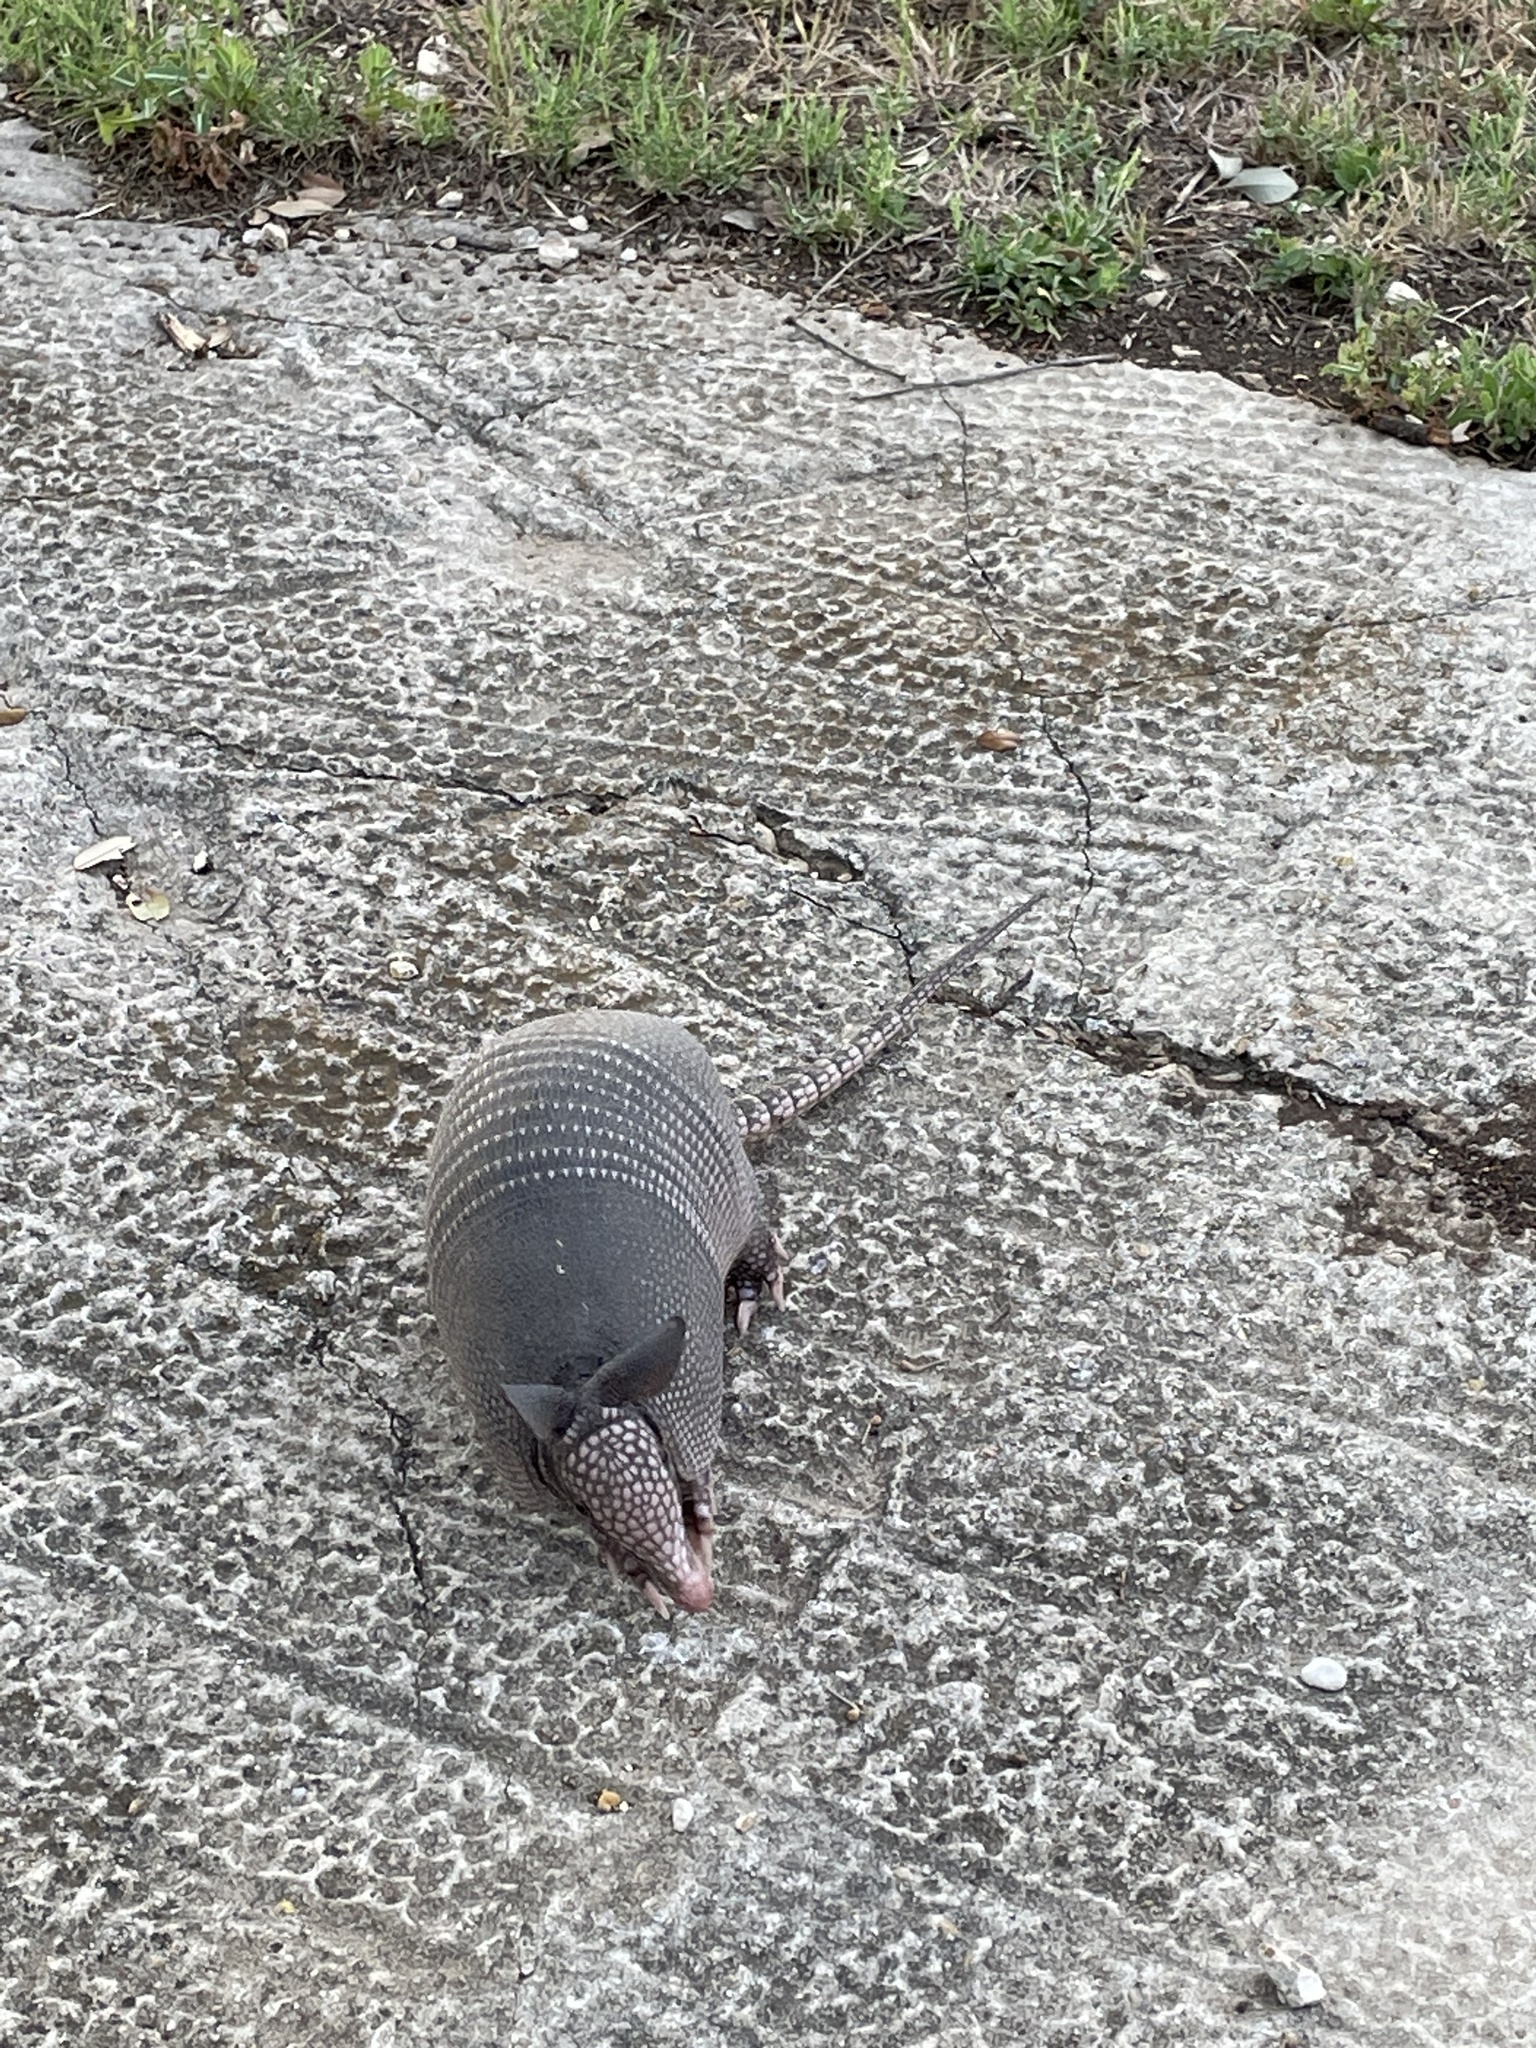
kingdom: Animalia
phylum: Chordata
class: Mammalia
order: Cingulata
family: Dasypodidae
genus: Dasypus
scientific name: Dasypus novemcinctus
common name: Nine-banded armadillo
